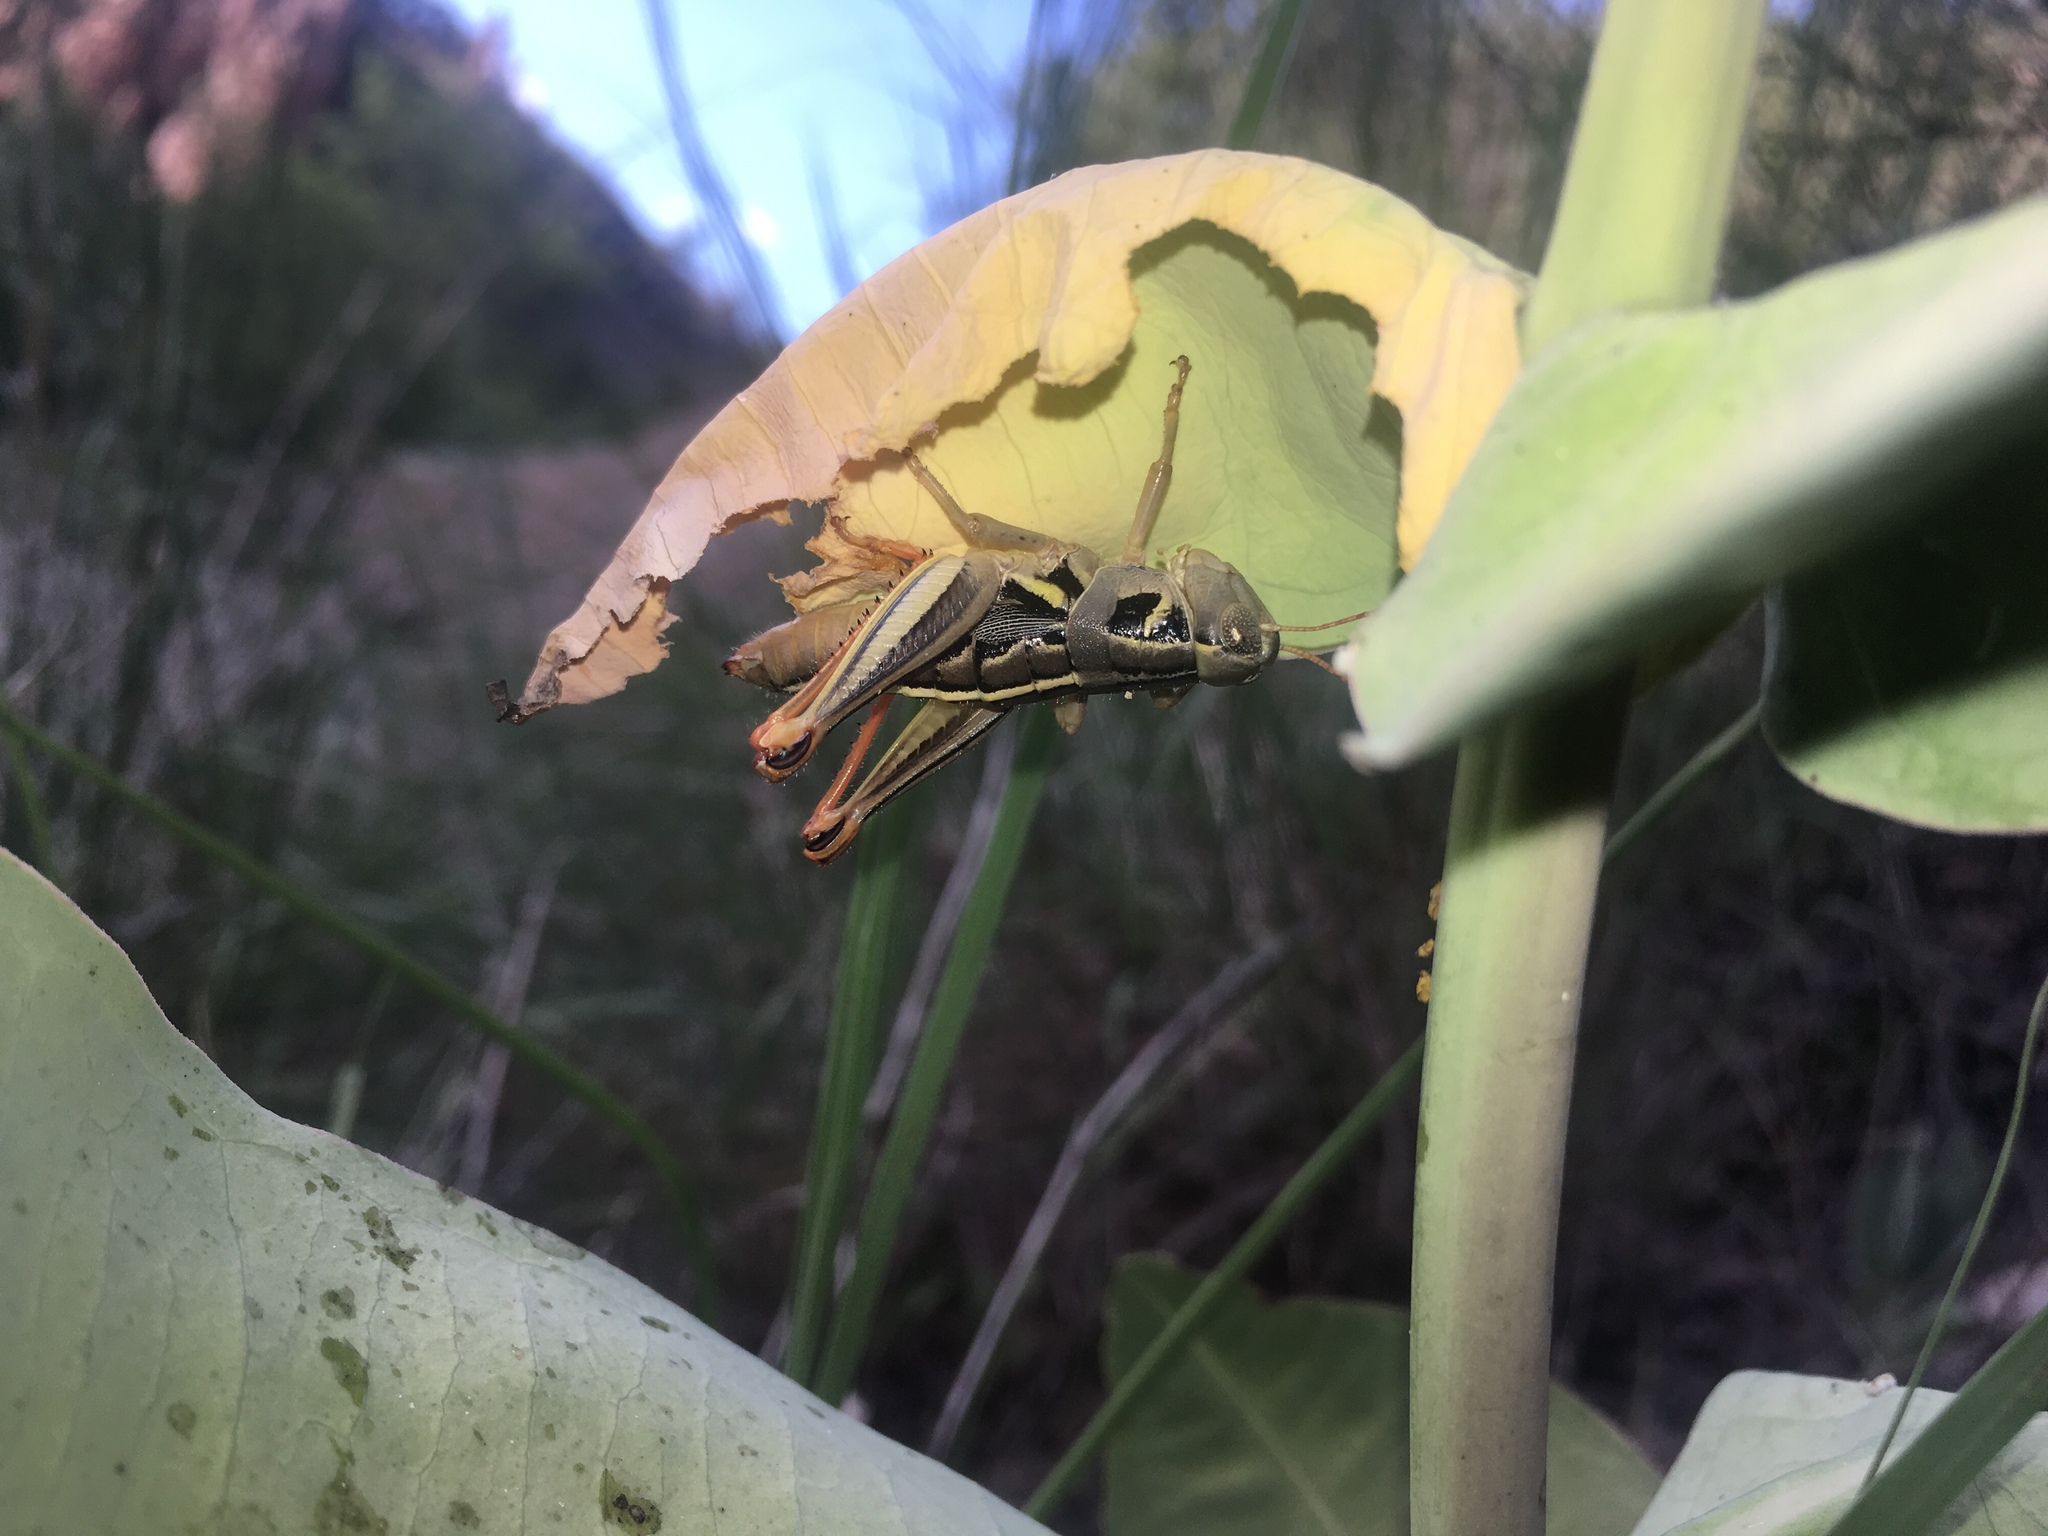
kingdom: Animalia
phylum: Arthropoda
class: Insecta
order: Orthoptera
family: Acrididae
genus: Barytettix
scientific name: Barytettix humphreysii
